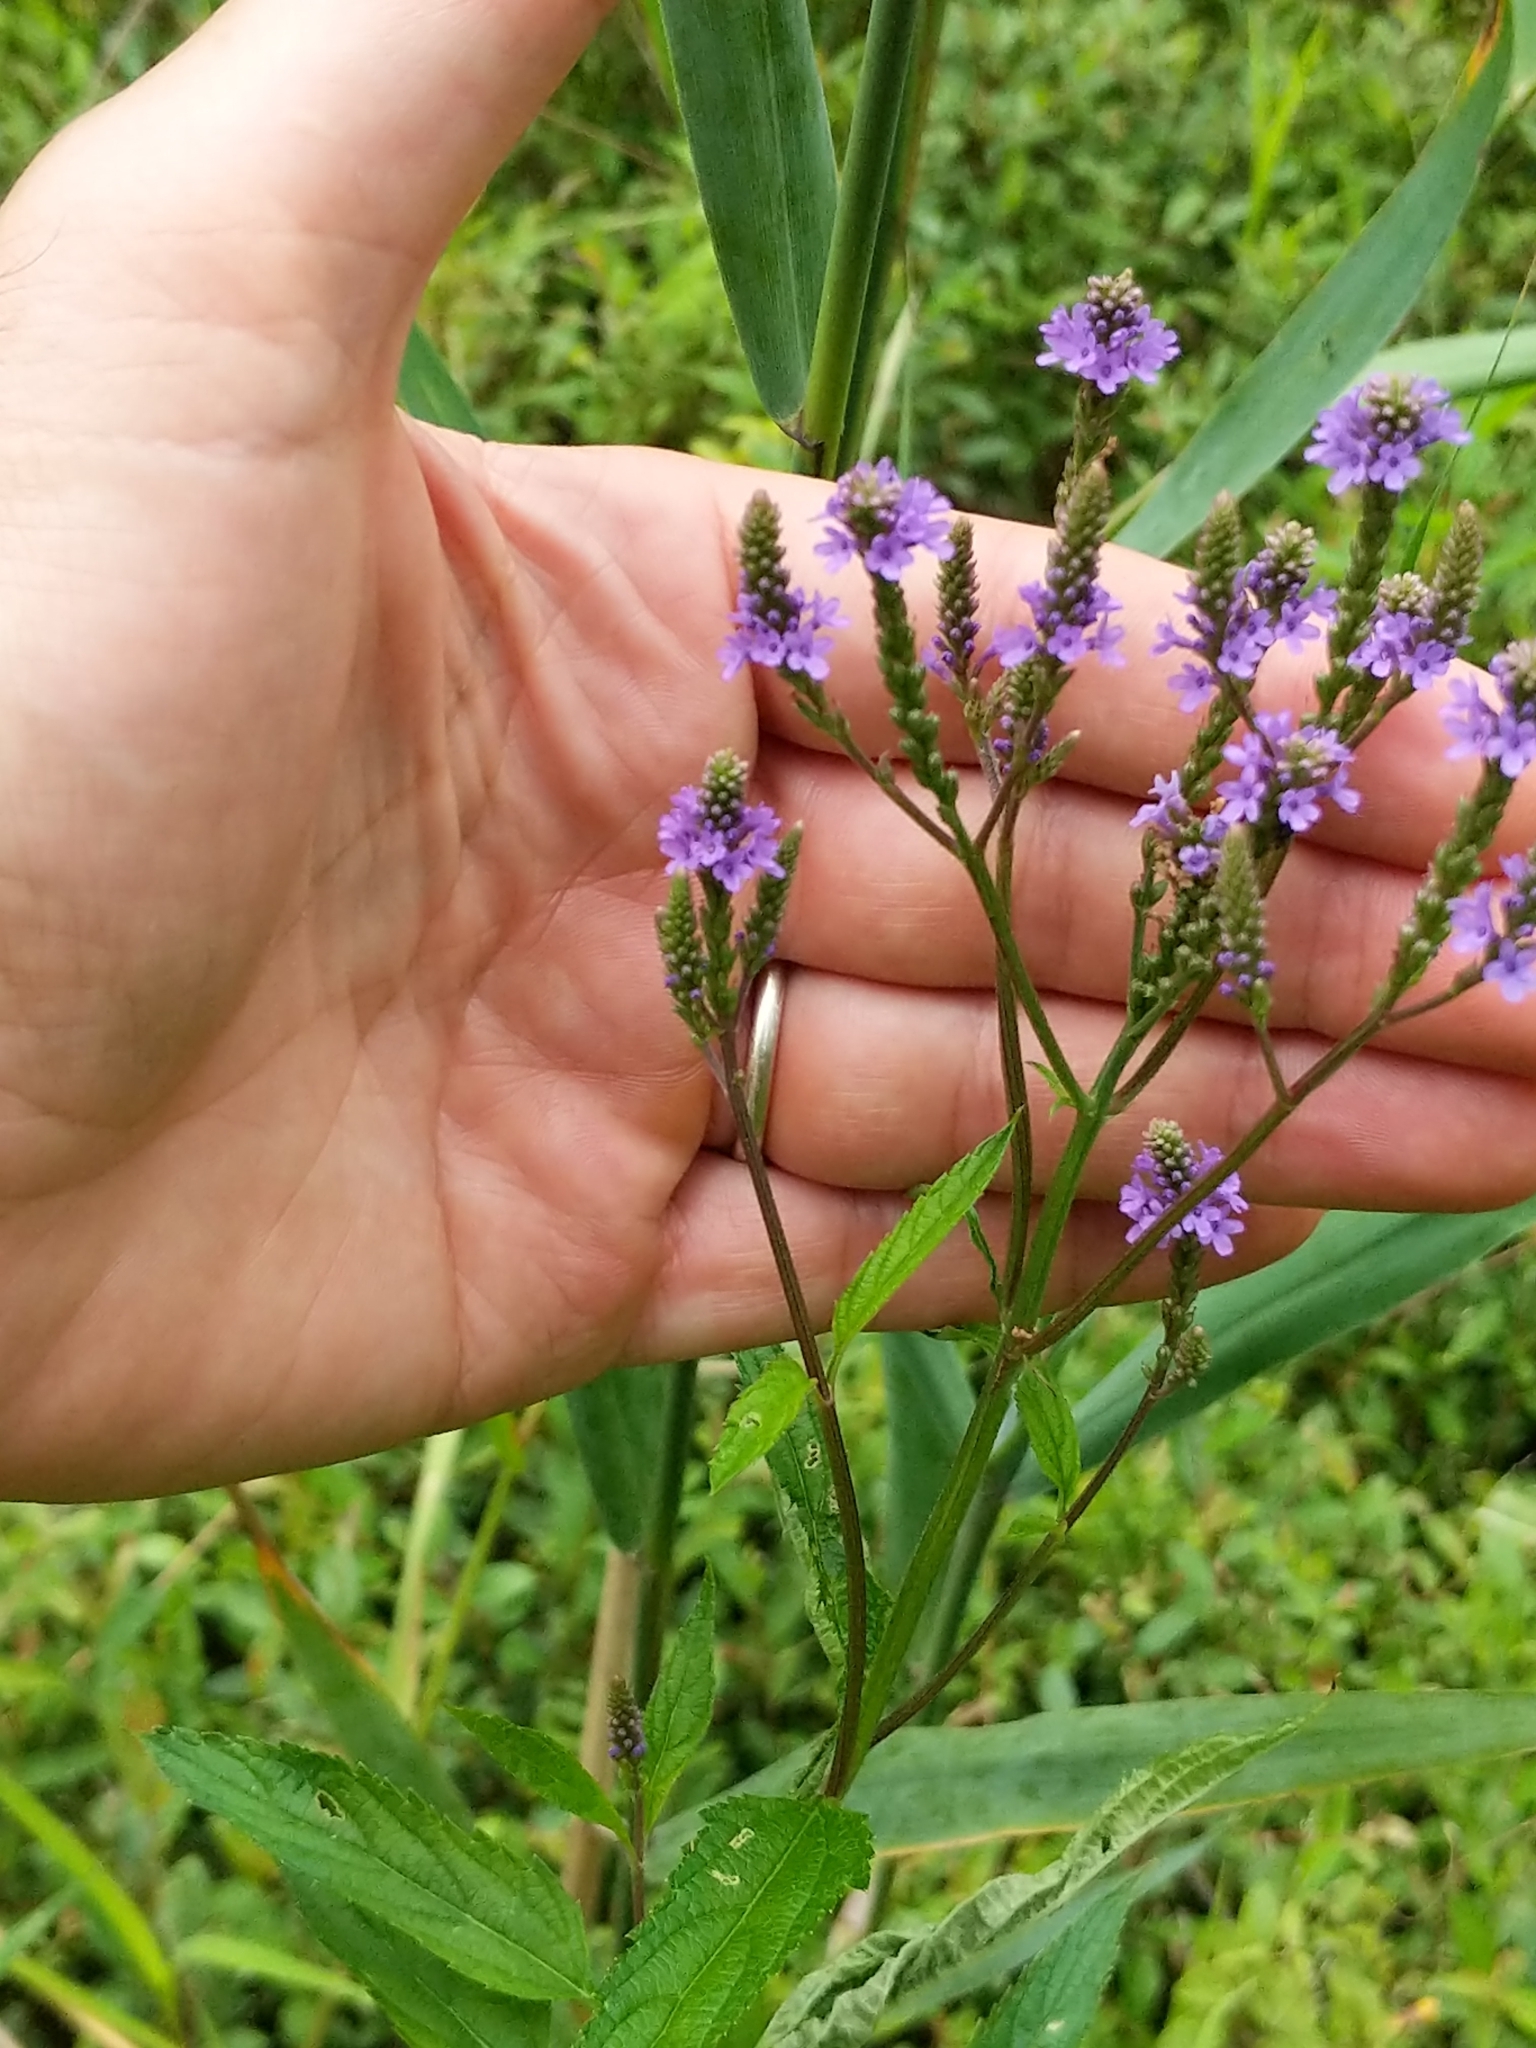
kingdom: Plantae
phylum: Tracheophyta
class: Magnoliopsida
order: Lamiales
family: Verbenaceae
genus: Verbena
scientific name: Verbena hastata
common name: American blue vervain
